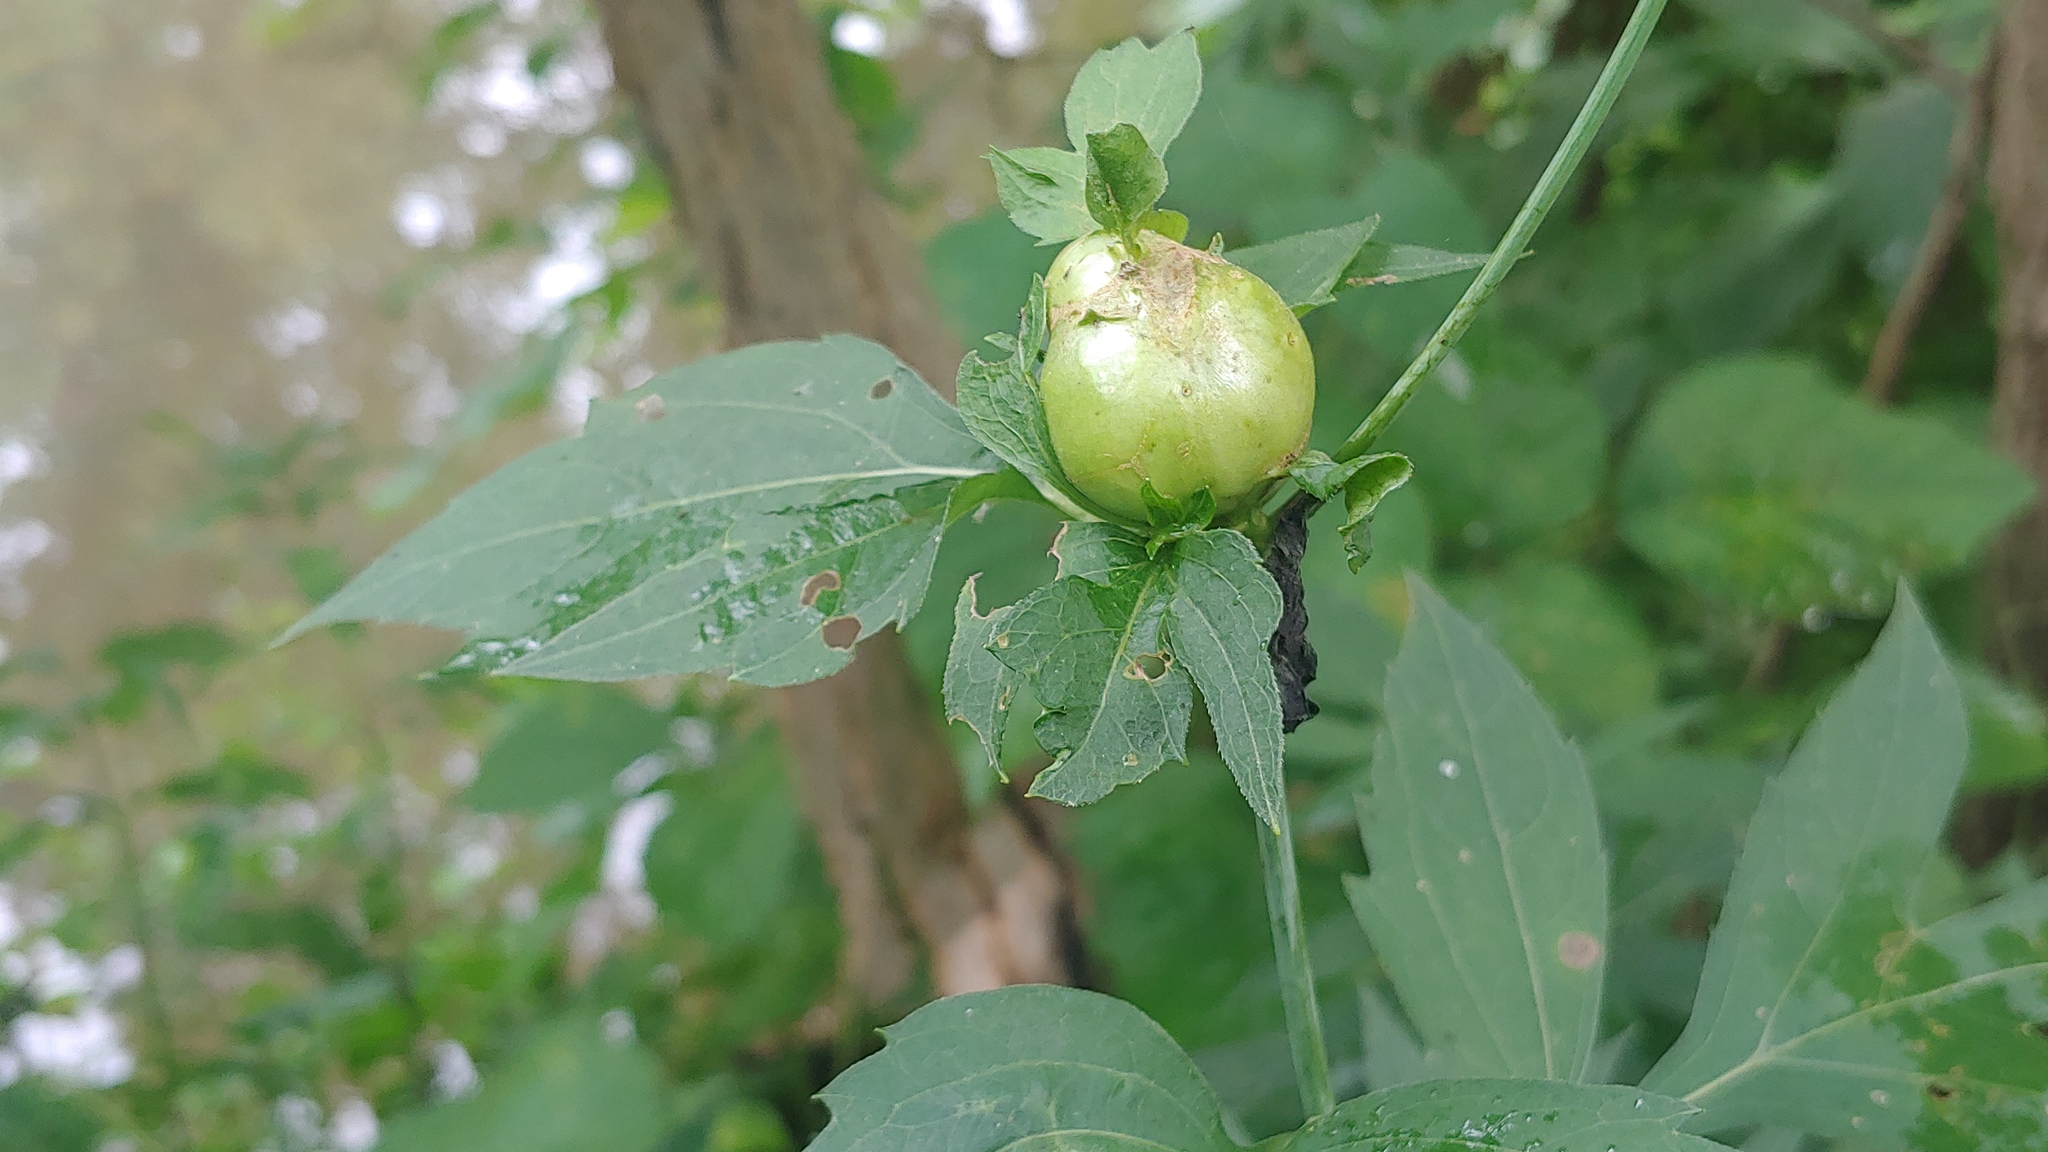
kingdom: Animalia
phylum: Arthropoda
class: Insecta
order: Diptera
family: Cecidomyiidae
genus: Asphondylia
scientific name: Asphondylia rudbeckiaeconspicua
